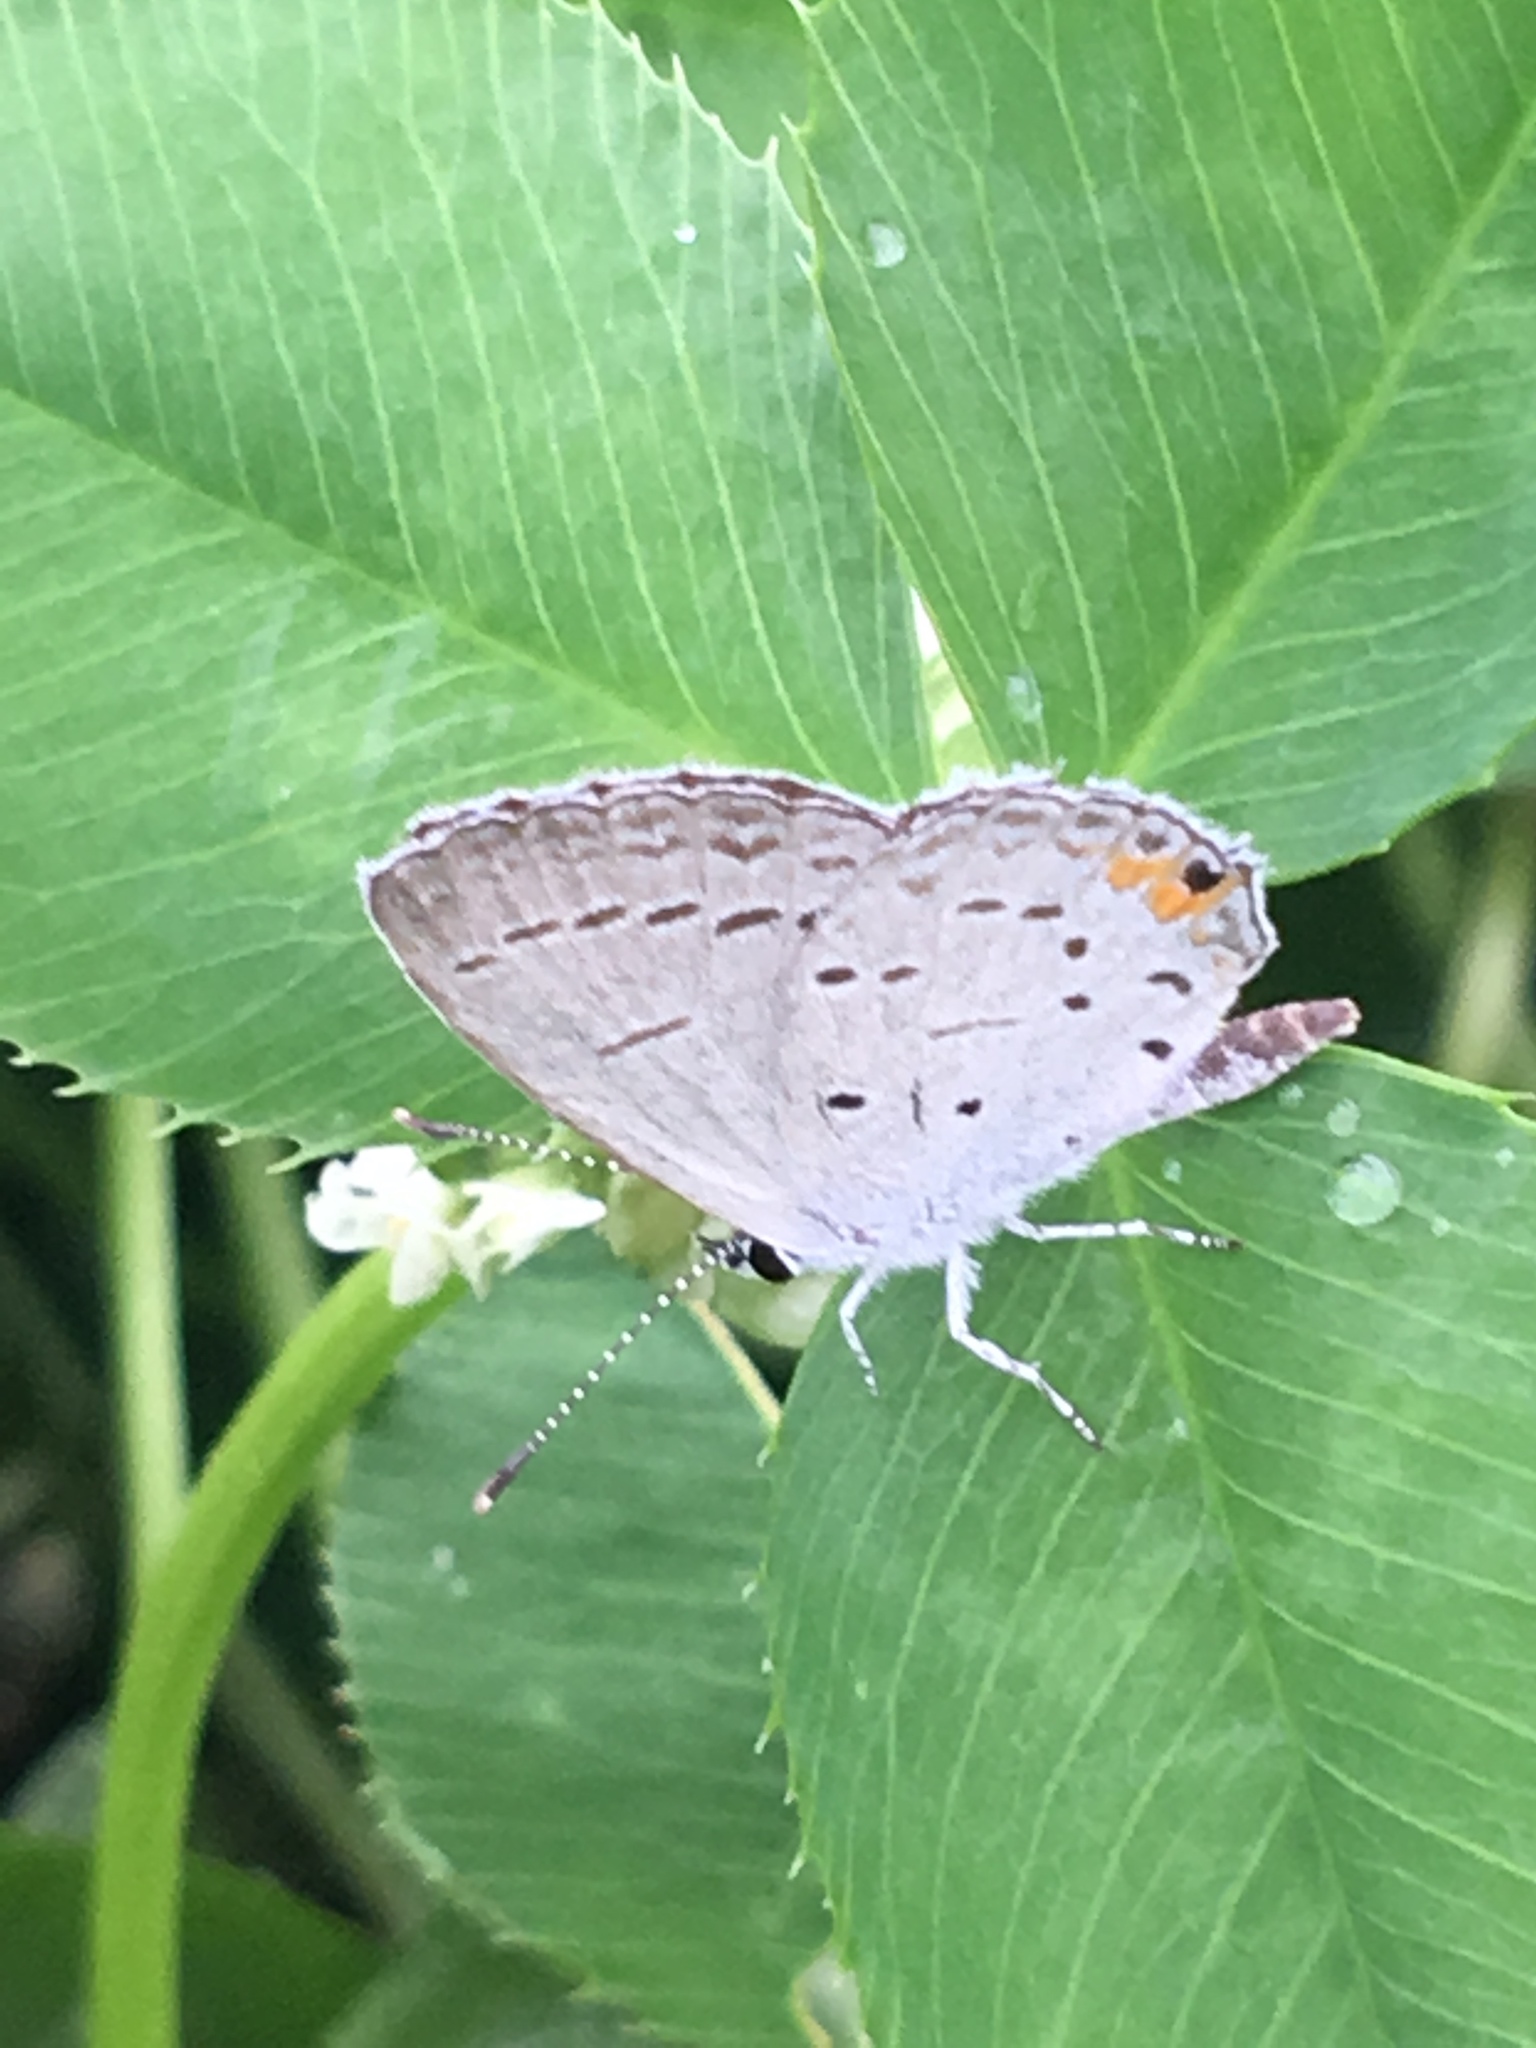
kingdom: Animalia
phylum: Arthropoda
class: Insecta
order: Lepidoptera
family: Lycaenidae
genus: Elkalyce
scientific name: Elkalyce comyntas
